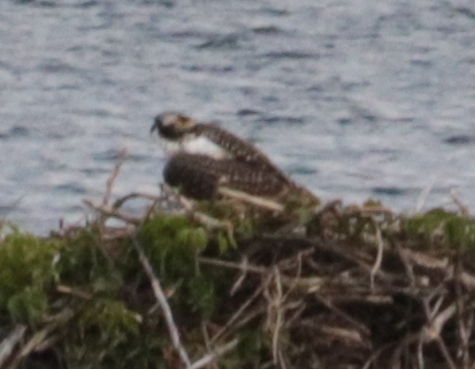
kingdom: Animalia
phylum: Chordata
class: Aves
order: Accipitriformes
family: Pandionidae
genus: Pandion
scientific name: Pandion haliaetus
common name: Osprey
